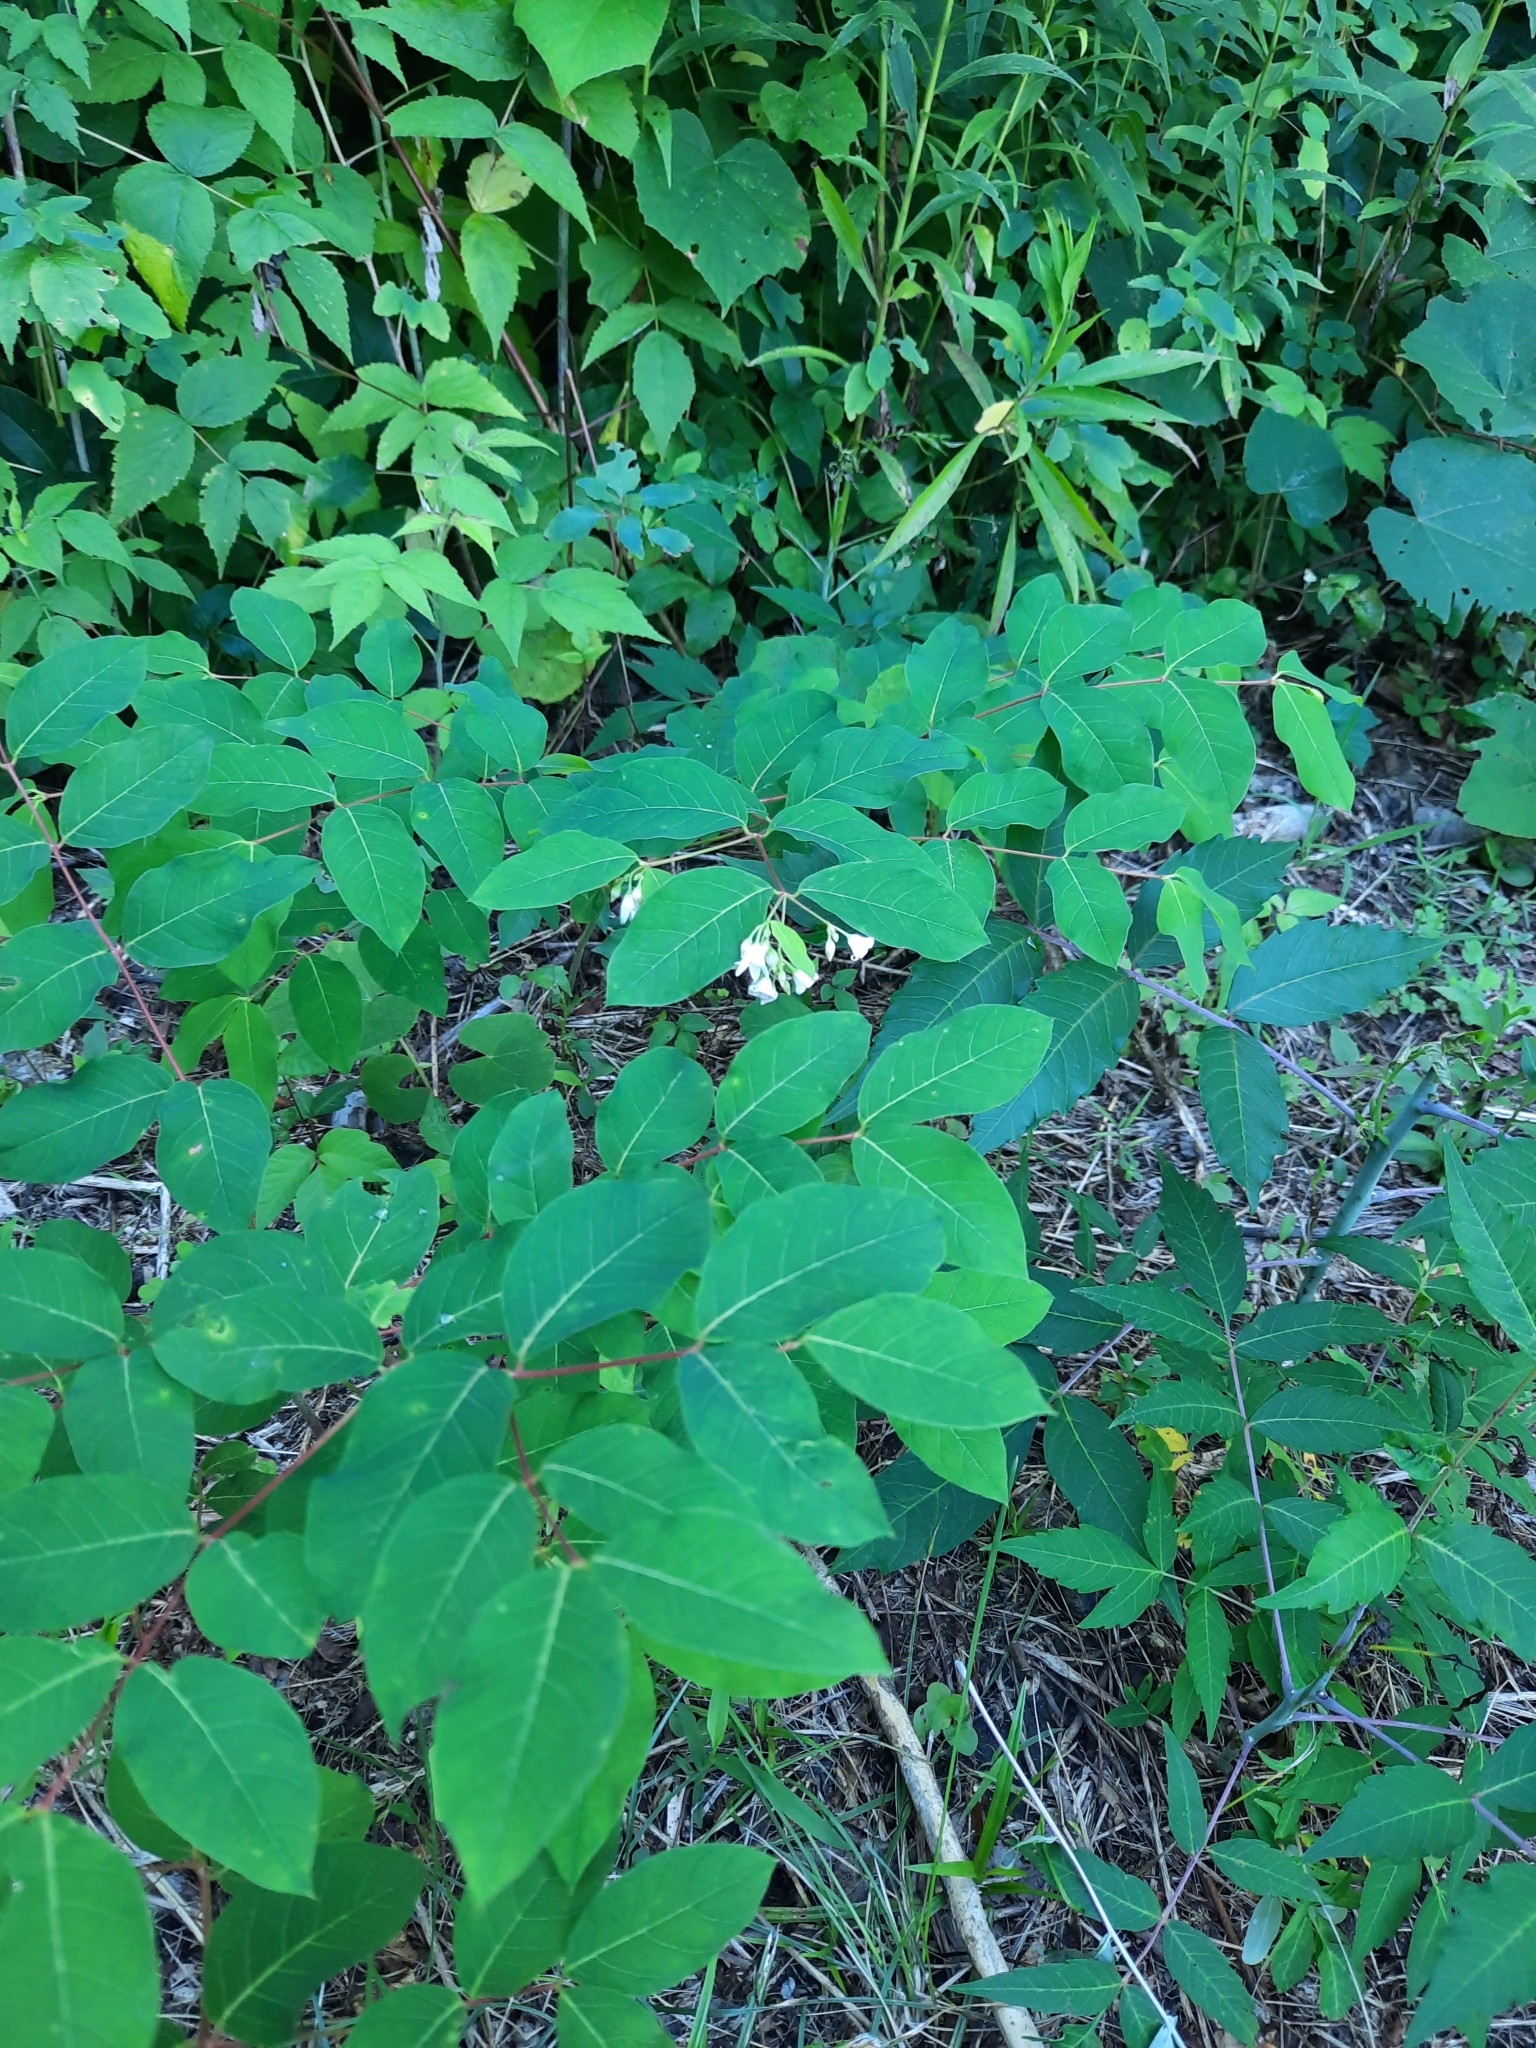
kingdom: Plantae
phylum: Tracheophyta
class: Magnoliopsida
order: Gentianales
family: Apocynaceae
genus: Apocynum
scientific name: Apocynum androsaemifolium
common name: Spreading dogbane
